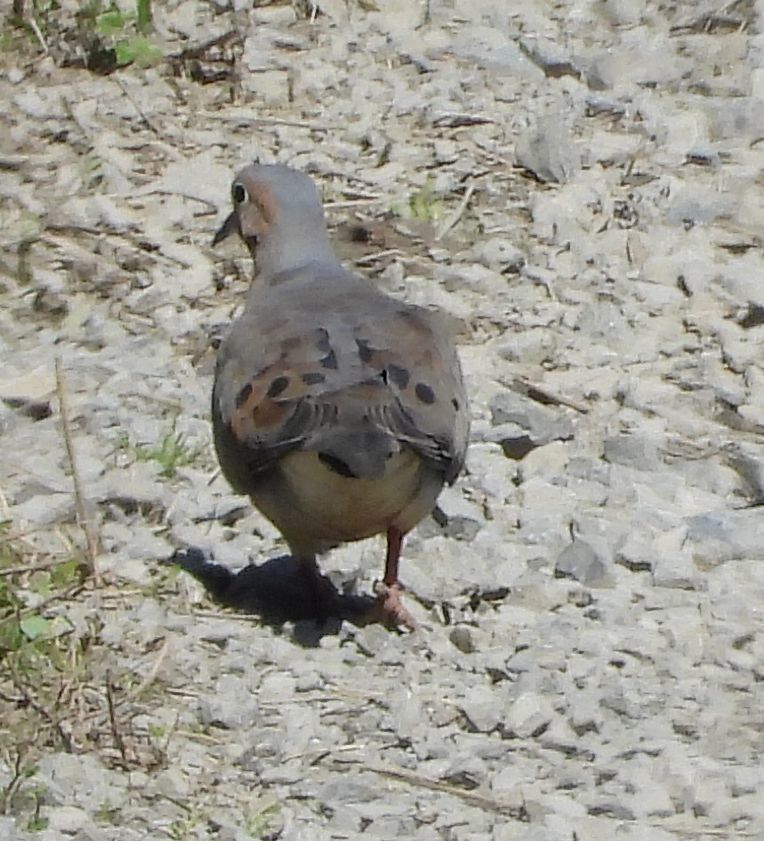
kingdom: Animalia
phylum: Chordata
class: Aves
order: Columbiformes
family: Columbidae
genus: Zenaida
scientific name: Zenaida macroura
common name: Mourning dove
